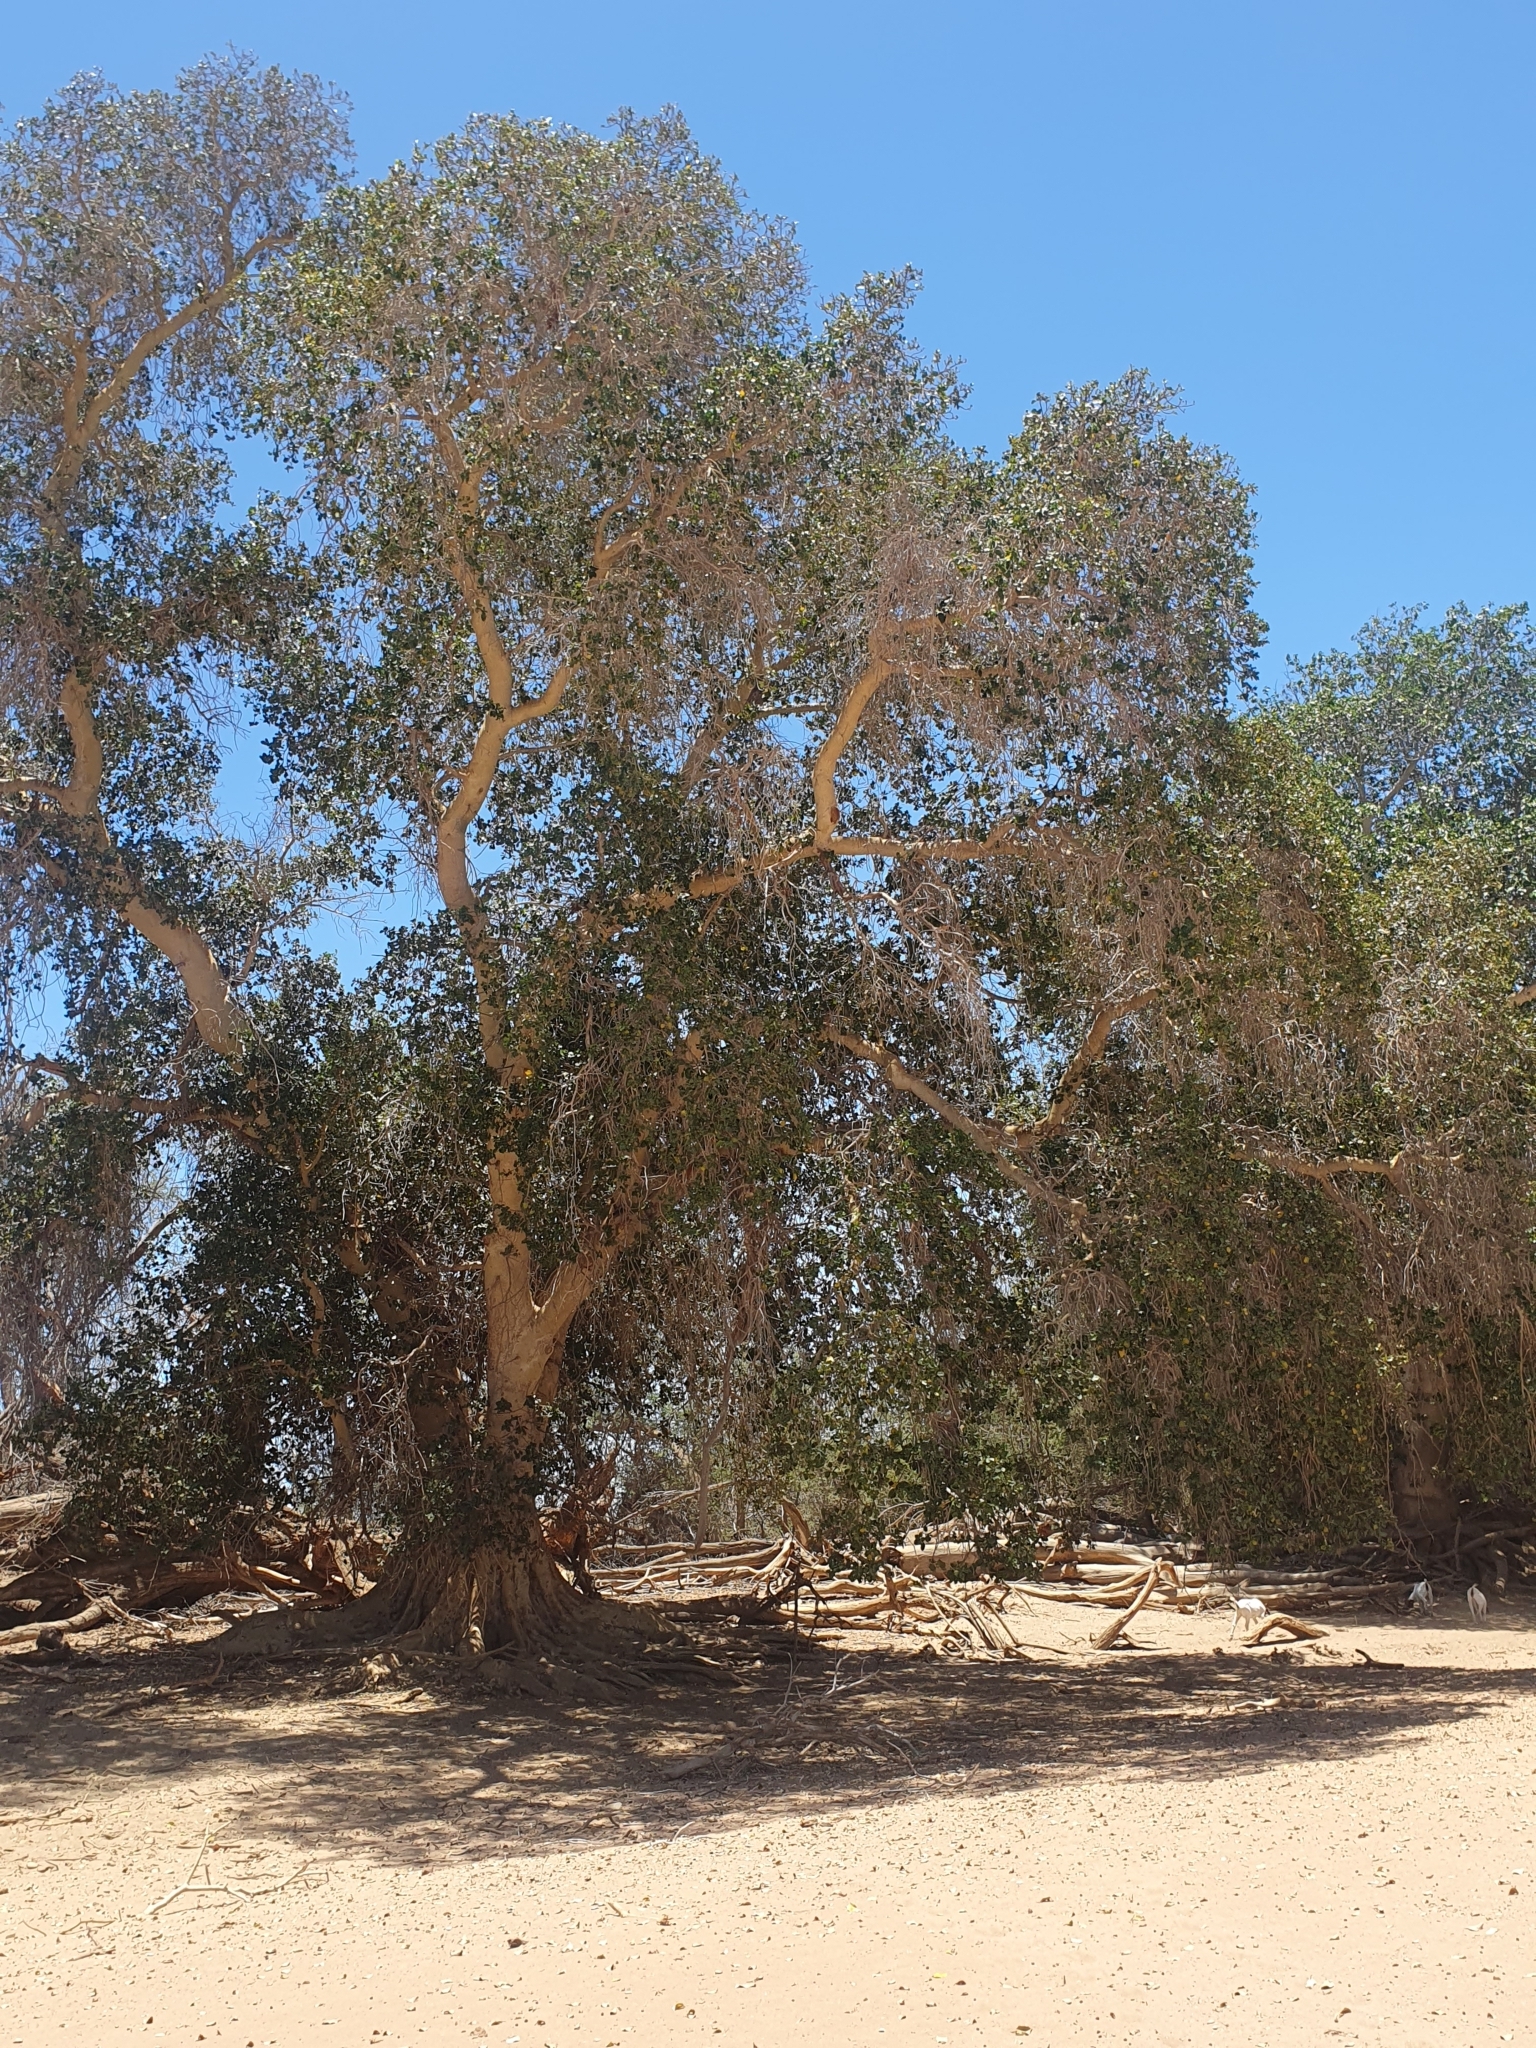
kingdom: Plantae
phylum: Tracheophyta
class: Magnoliopsida
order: Rosales
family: Moraceae
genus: Ficus
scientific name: Ficus sycomorus
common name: Sycomore
